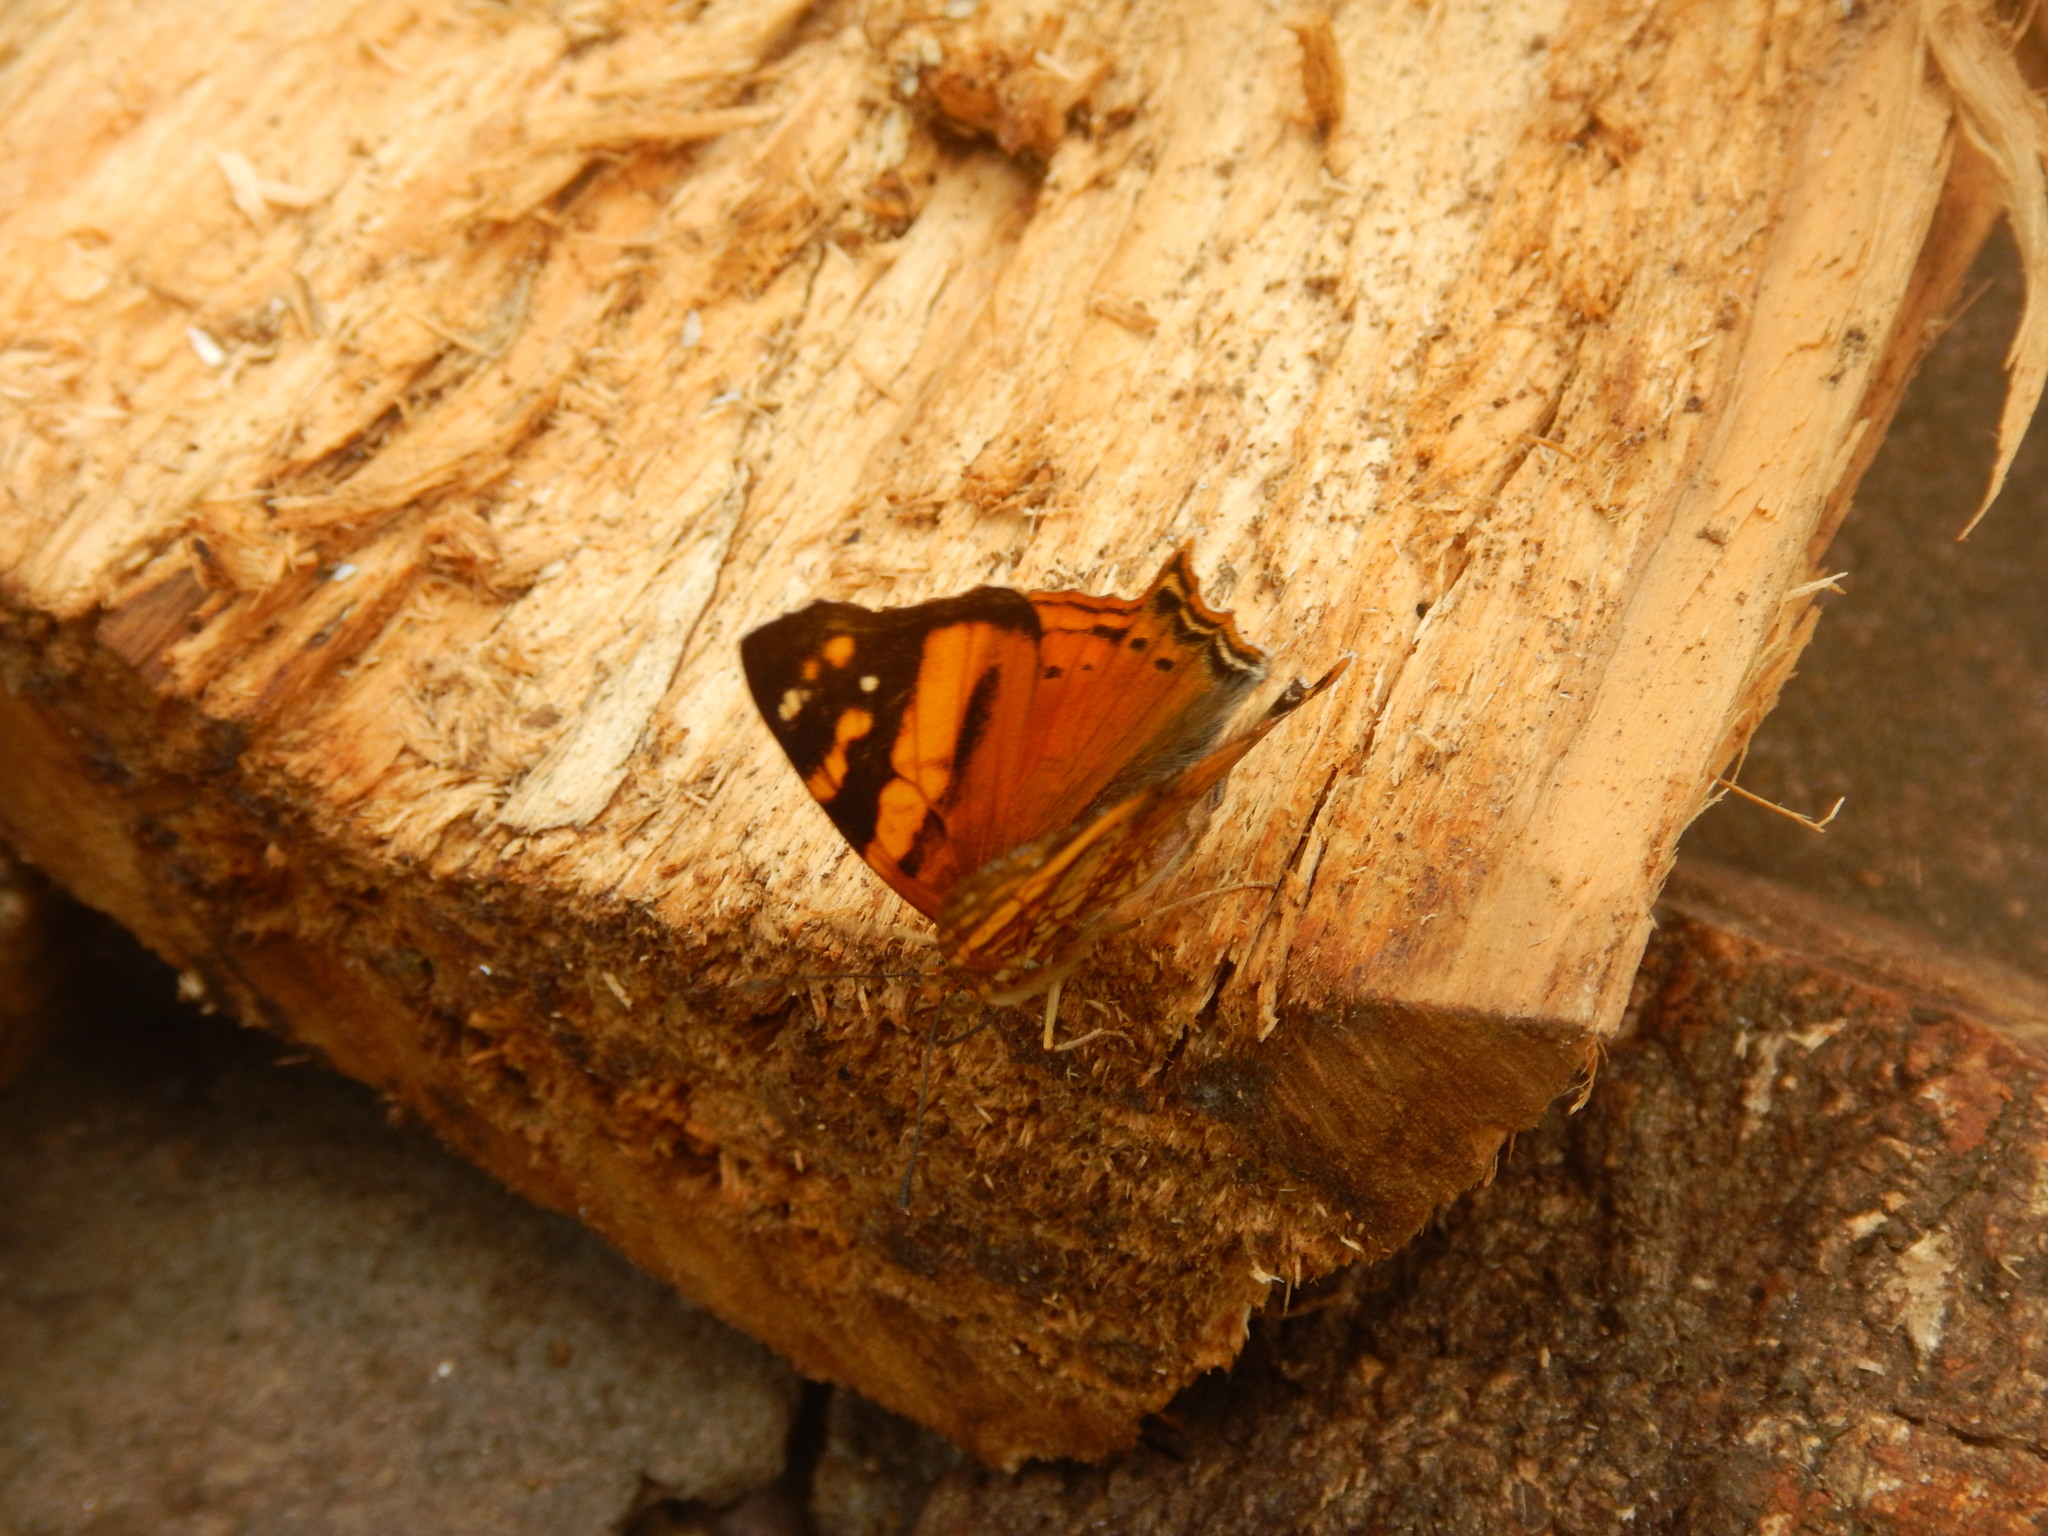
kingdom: Animalia
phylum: Arthropoda
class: Insecta
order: Lepidoptera
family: Nymphalidae
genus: Hypanartia
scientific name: Hypanartia lethe
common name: Orange mapwing
